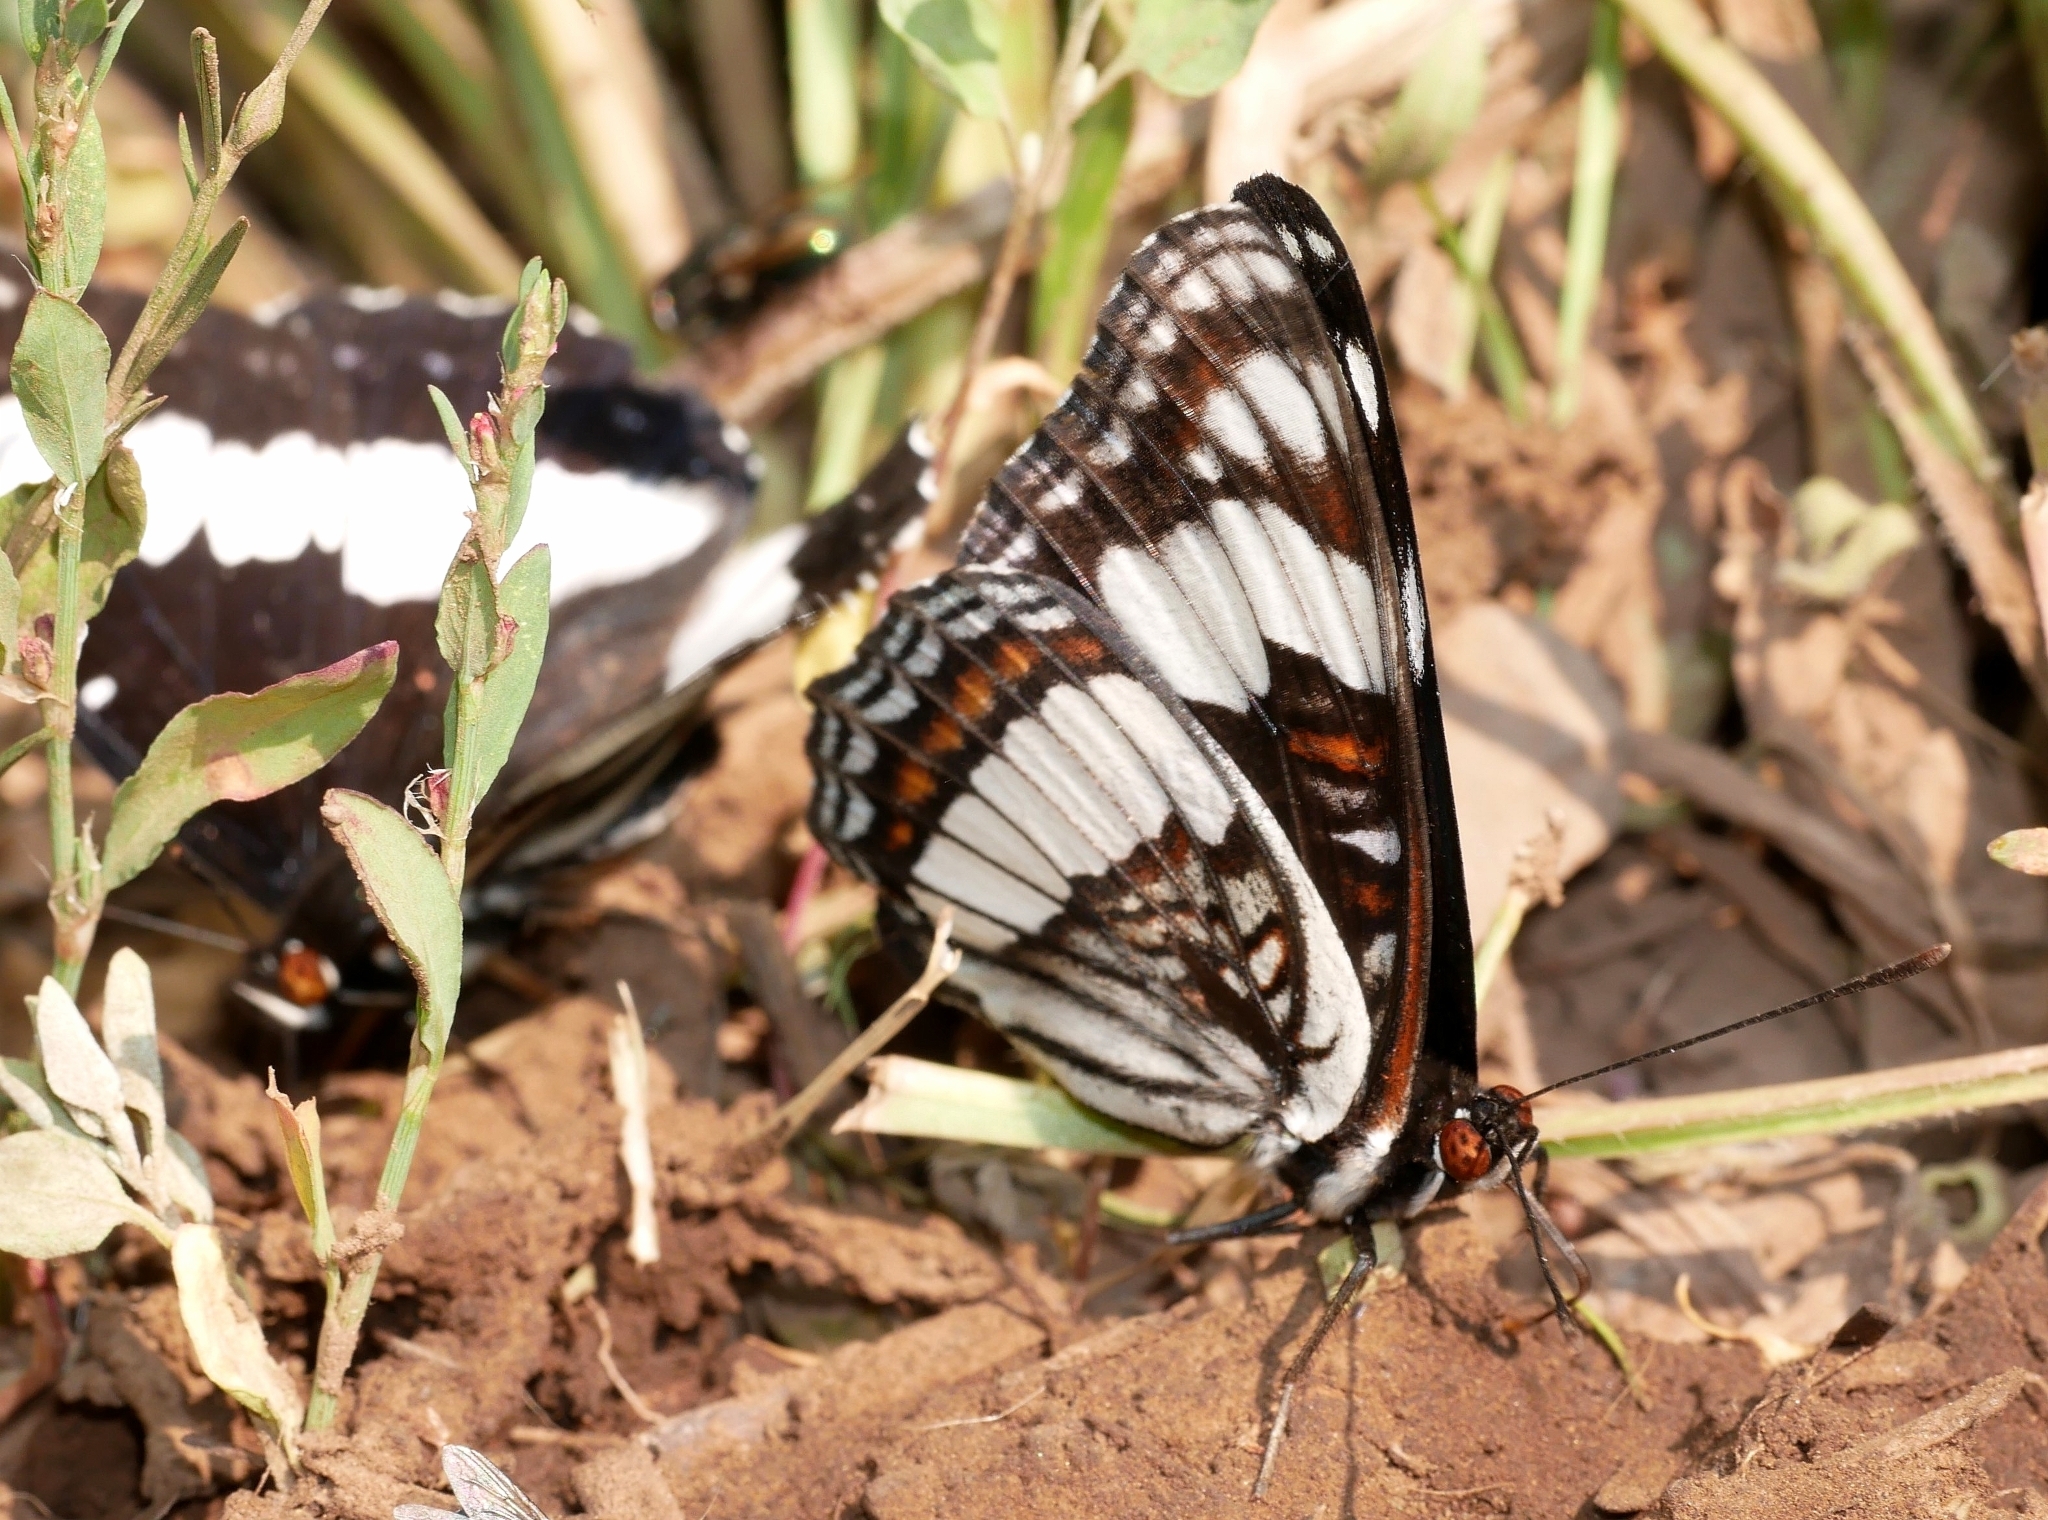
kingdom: Animalia
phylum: Arthropoda
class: Insecta
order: Lepidoptera
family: Nymphalidae
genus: Limenitis
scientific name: Limenitis weidemeyerii
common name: Weidemeyer's admiral
